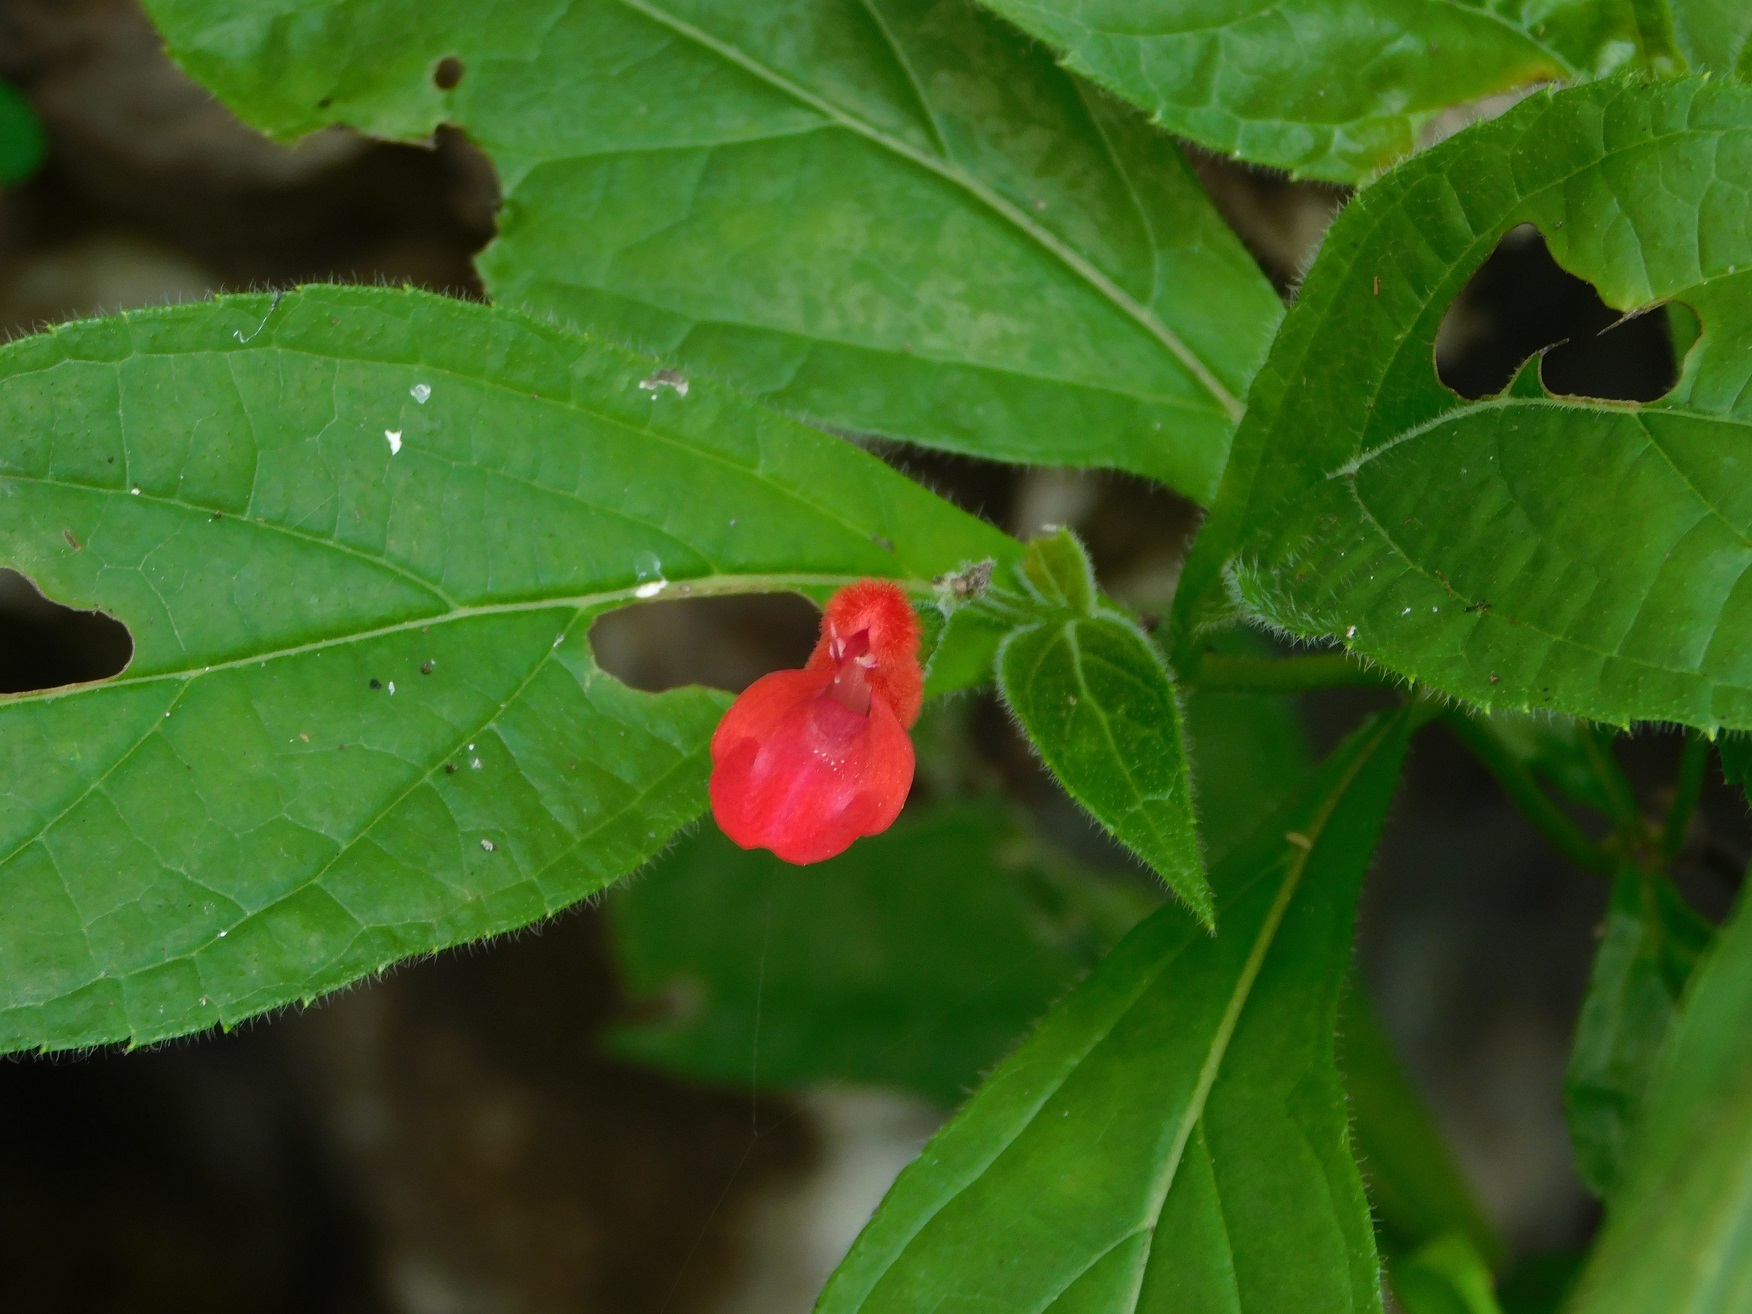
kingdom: Plantae
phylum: Tracheophyta
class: Magnoliopsida
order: Lamiales
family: Lamiaceae
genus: Salvia
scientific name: Salvia miniata
